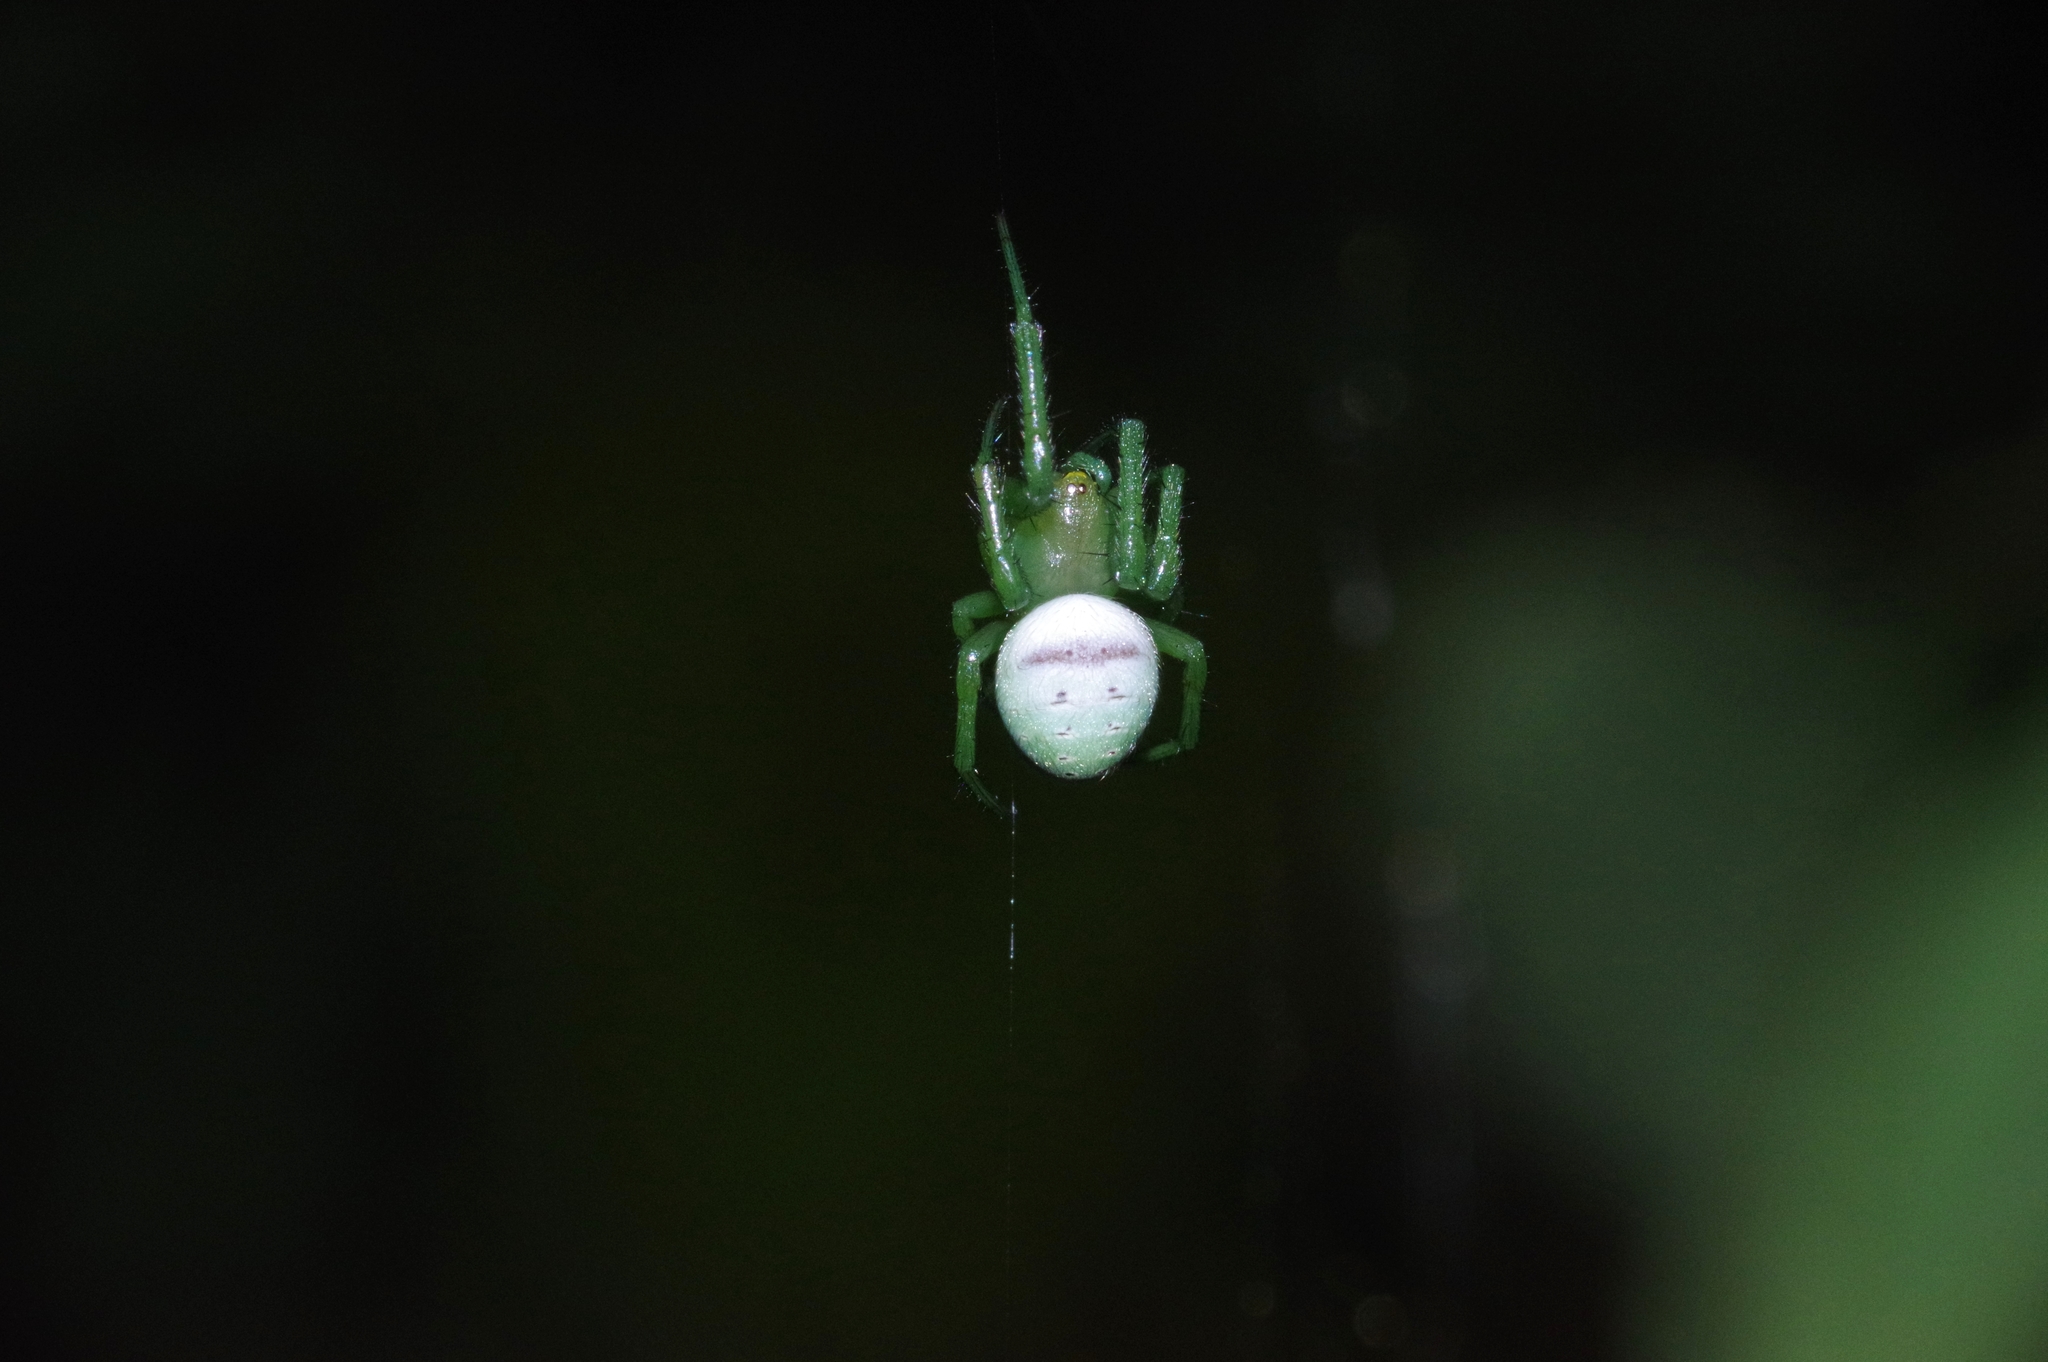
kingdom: Animalia
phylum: Arthropoda
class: Arachnida
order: Araneae
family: Araneidae
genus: Aoaraneus
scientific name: Aoaraneus amabilis
